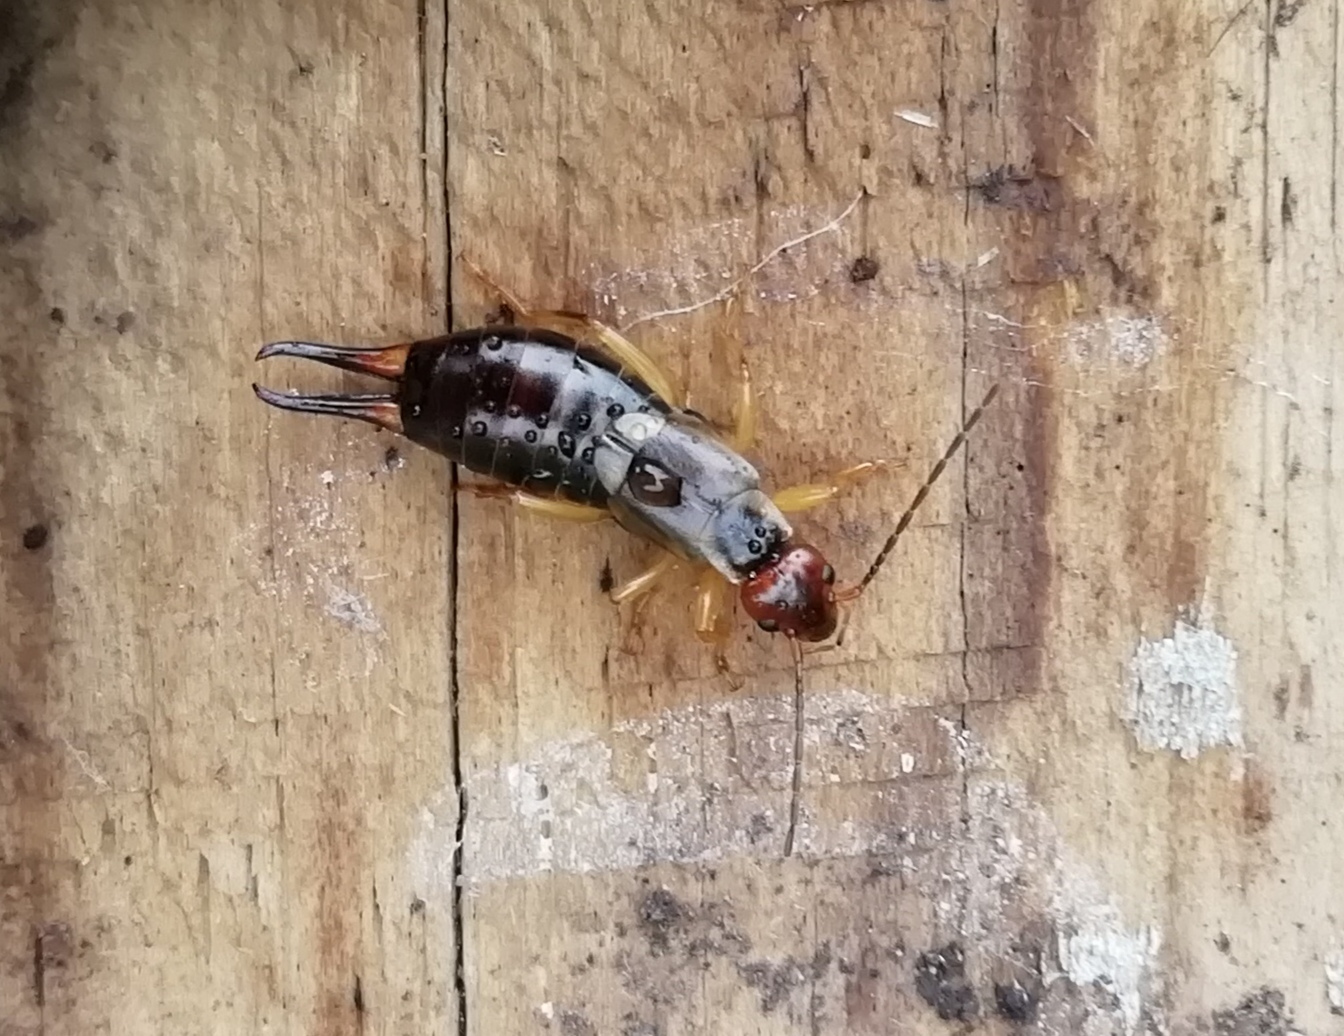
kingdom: Animalia
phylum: Arthropoda
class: Insecta
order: Dermaptera
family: Forficulidae
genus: Forficula
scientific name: Forficula
